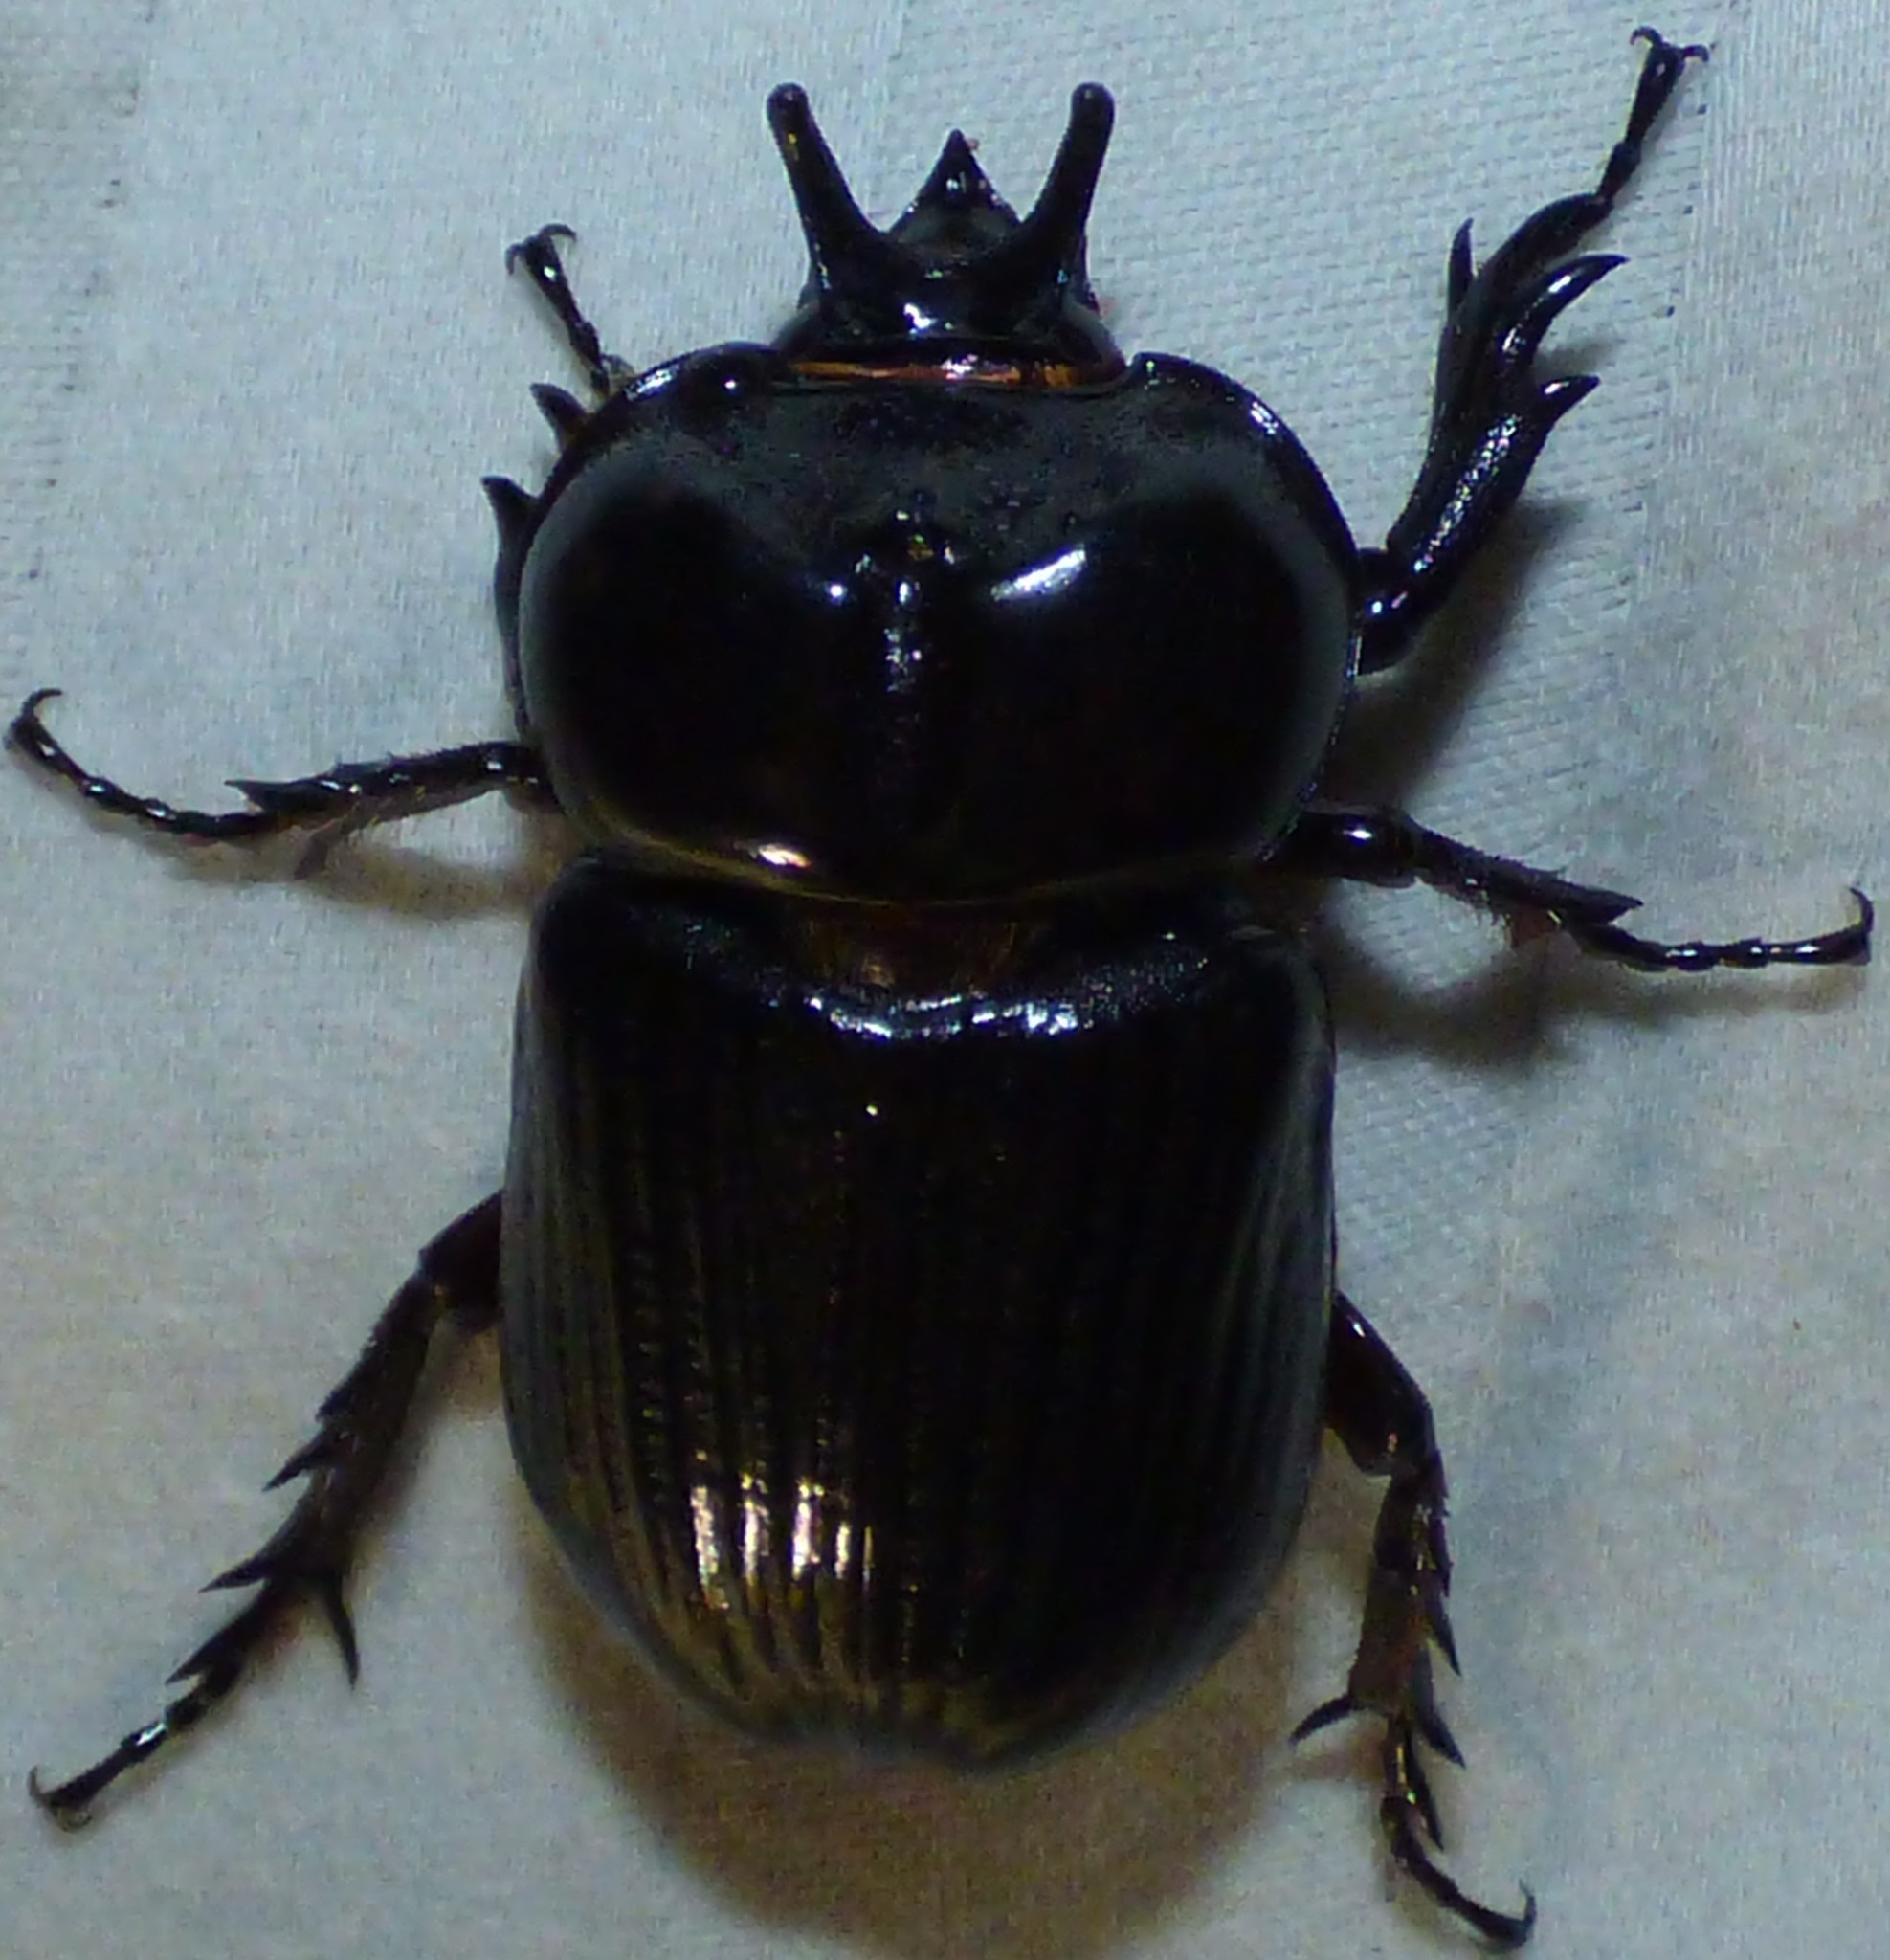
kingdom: Animalia
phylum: Arthropoda
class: Insecta
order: Coleoptera
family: Scarabaeidae
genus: Phileurus
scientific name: Phileurus truncatus
